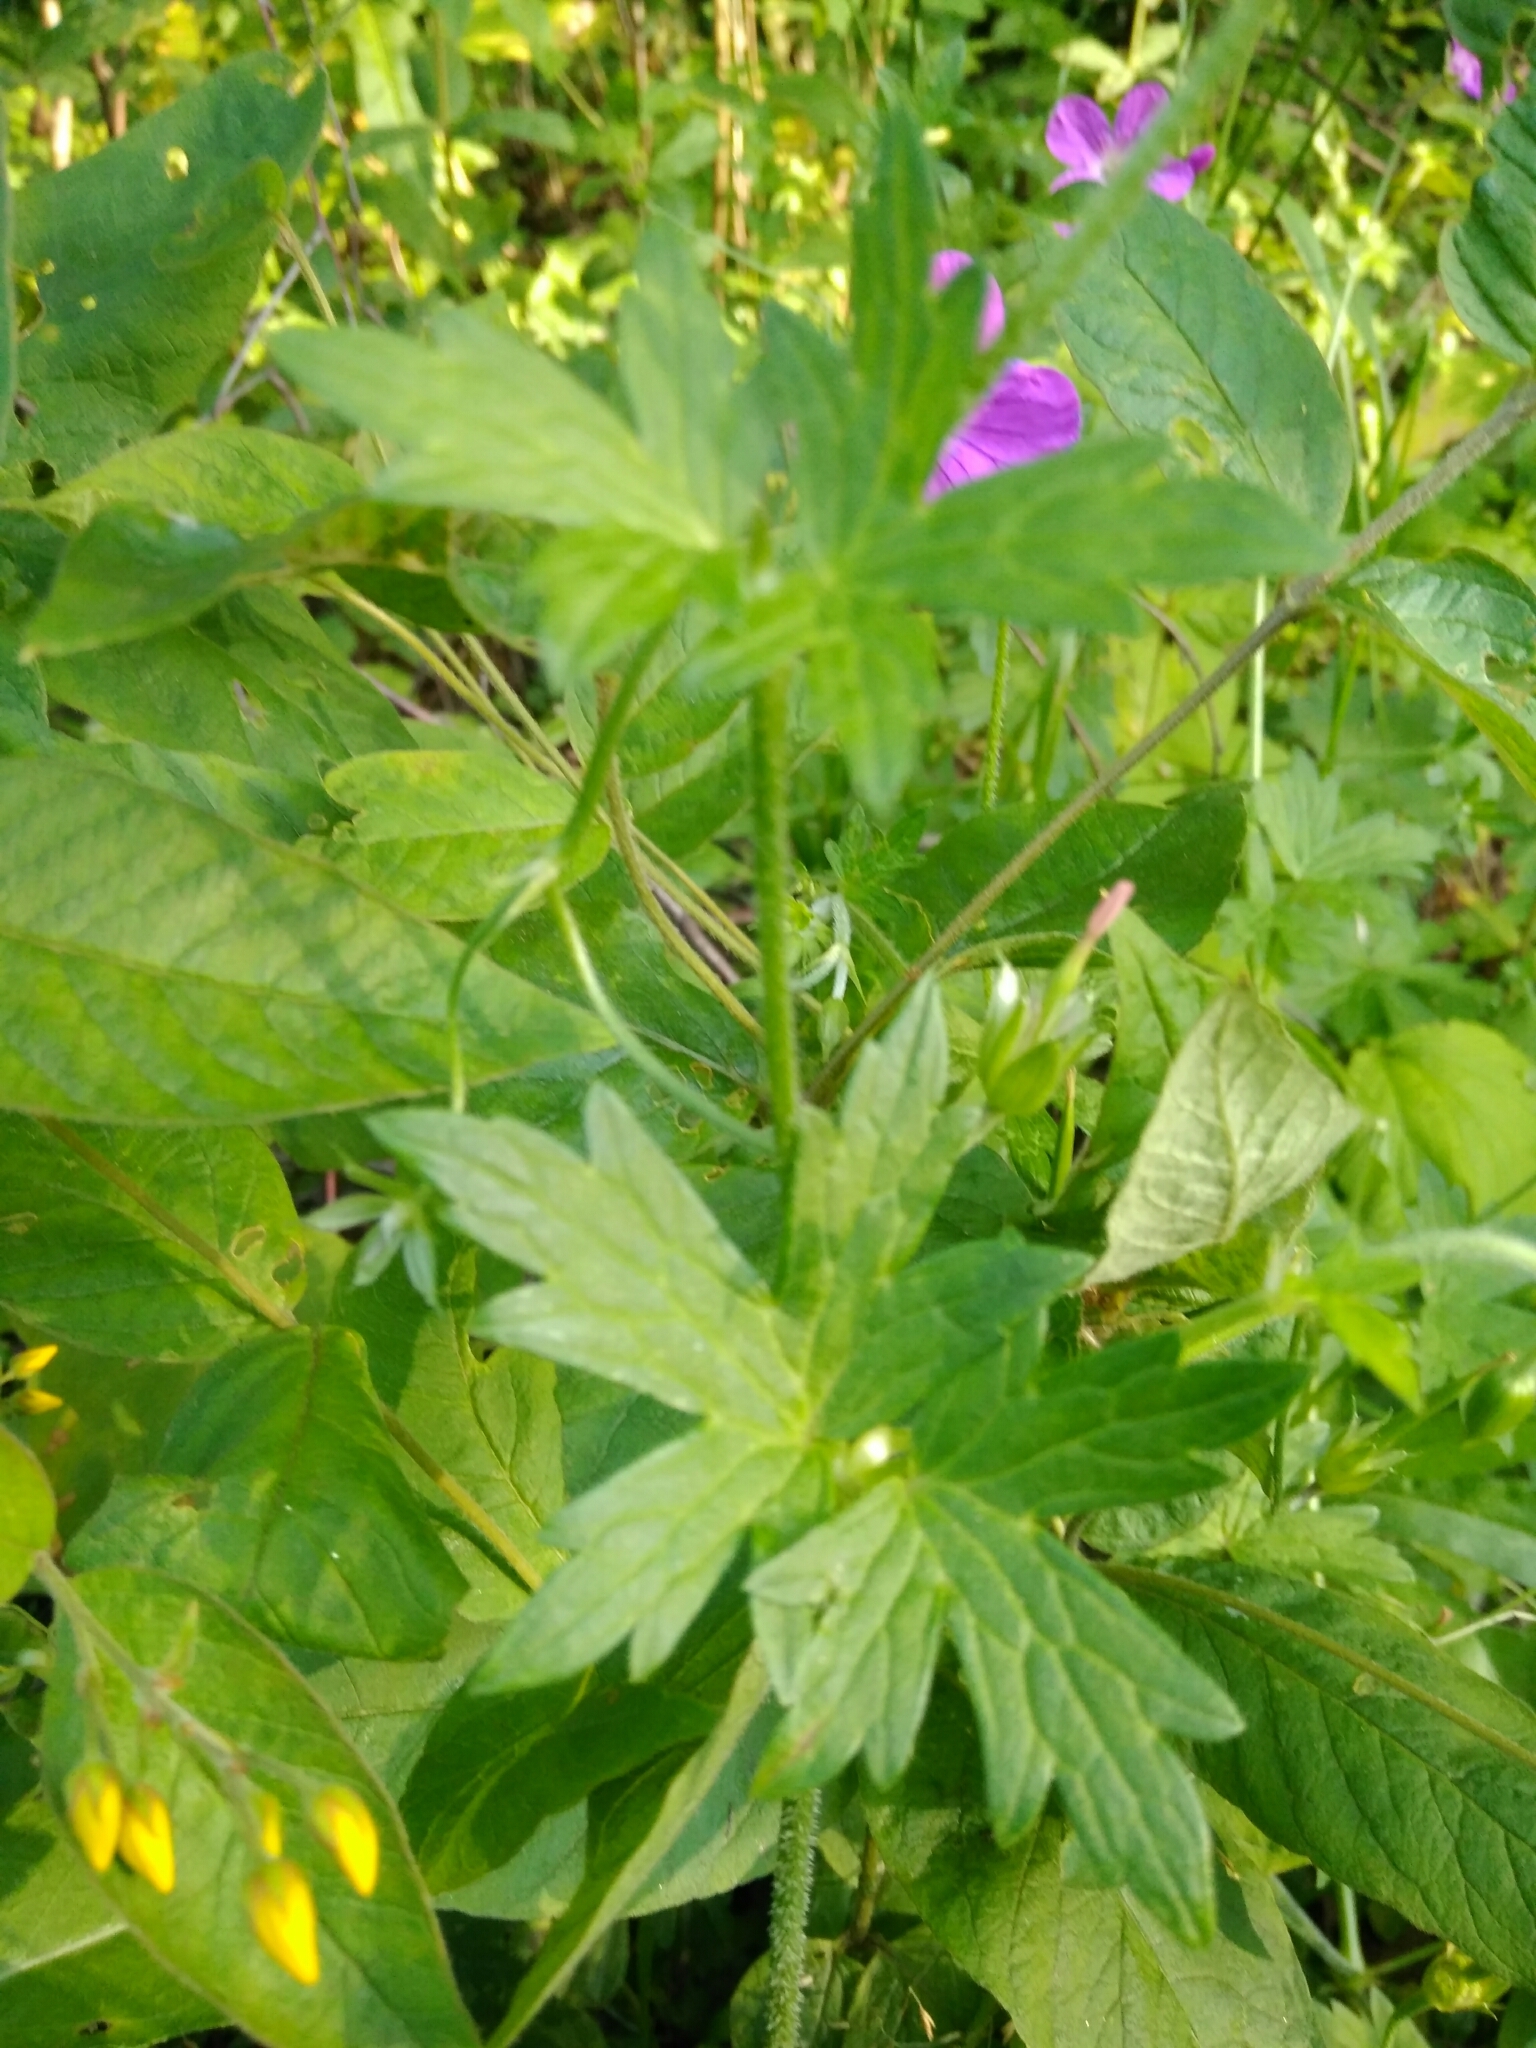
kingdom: Plantae
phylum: Tracheophyta
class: Magnoliopsida
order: Geraniales
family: Geraniaceae
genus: Geranium
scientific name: Geranium palustre
